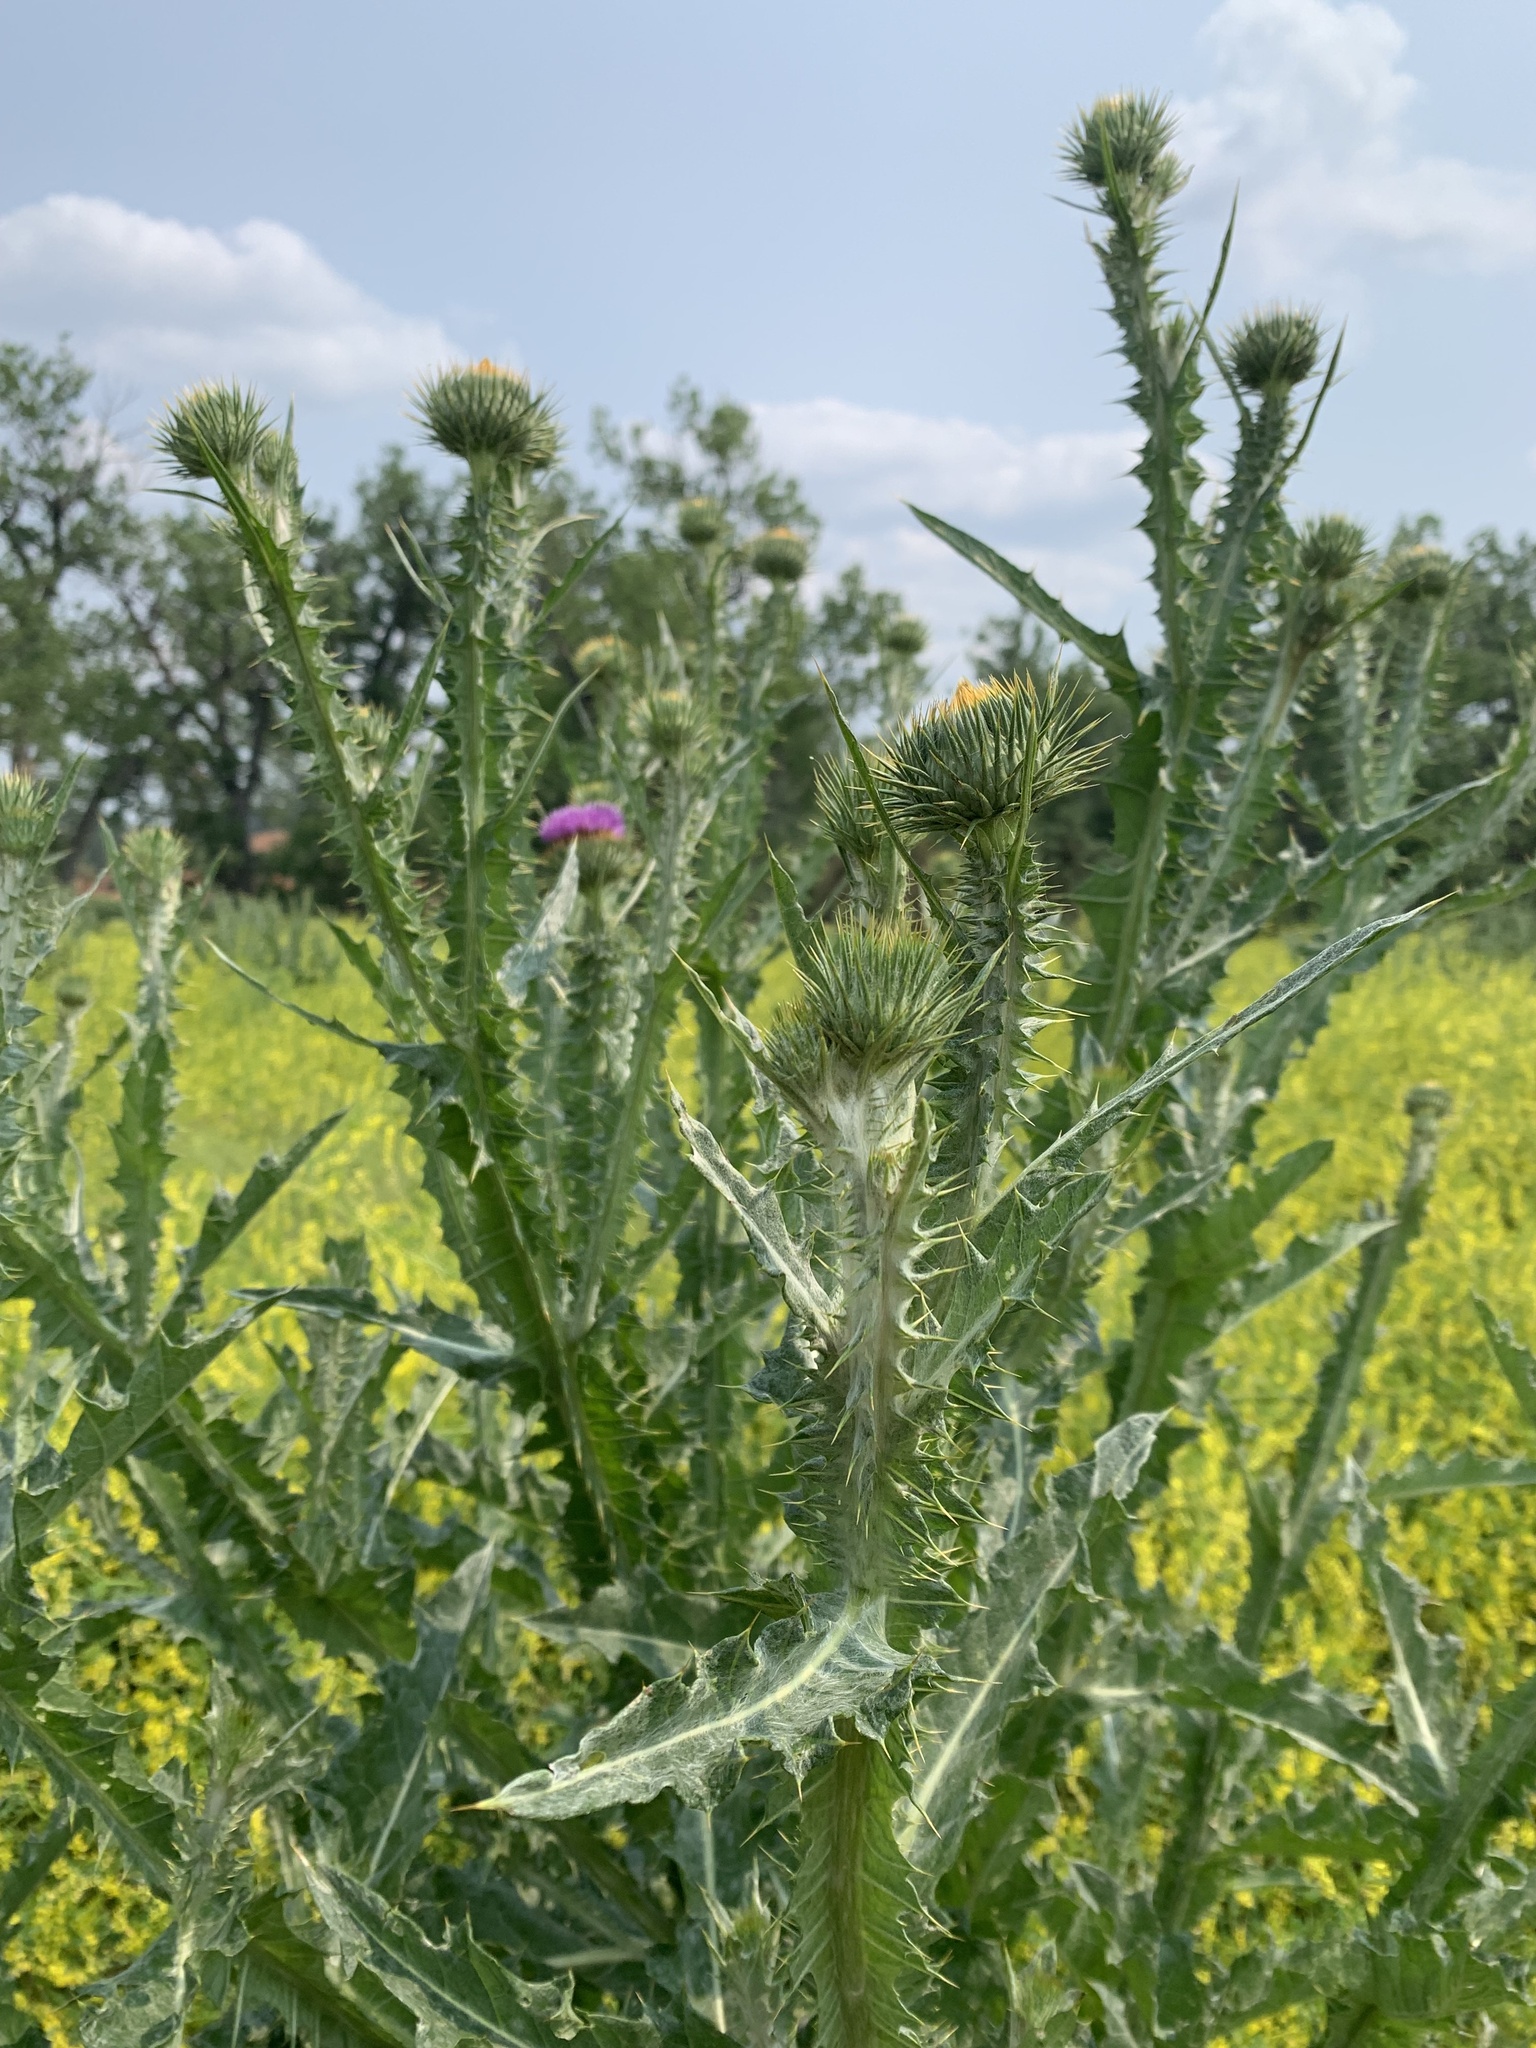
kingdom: Plantae
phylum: Tracheophyta
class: Magnoliopsida
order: Asterales
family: Asteraceae
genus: Onopordum
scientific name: Onopordum acanthium
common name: Scotch thistle
